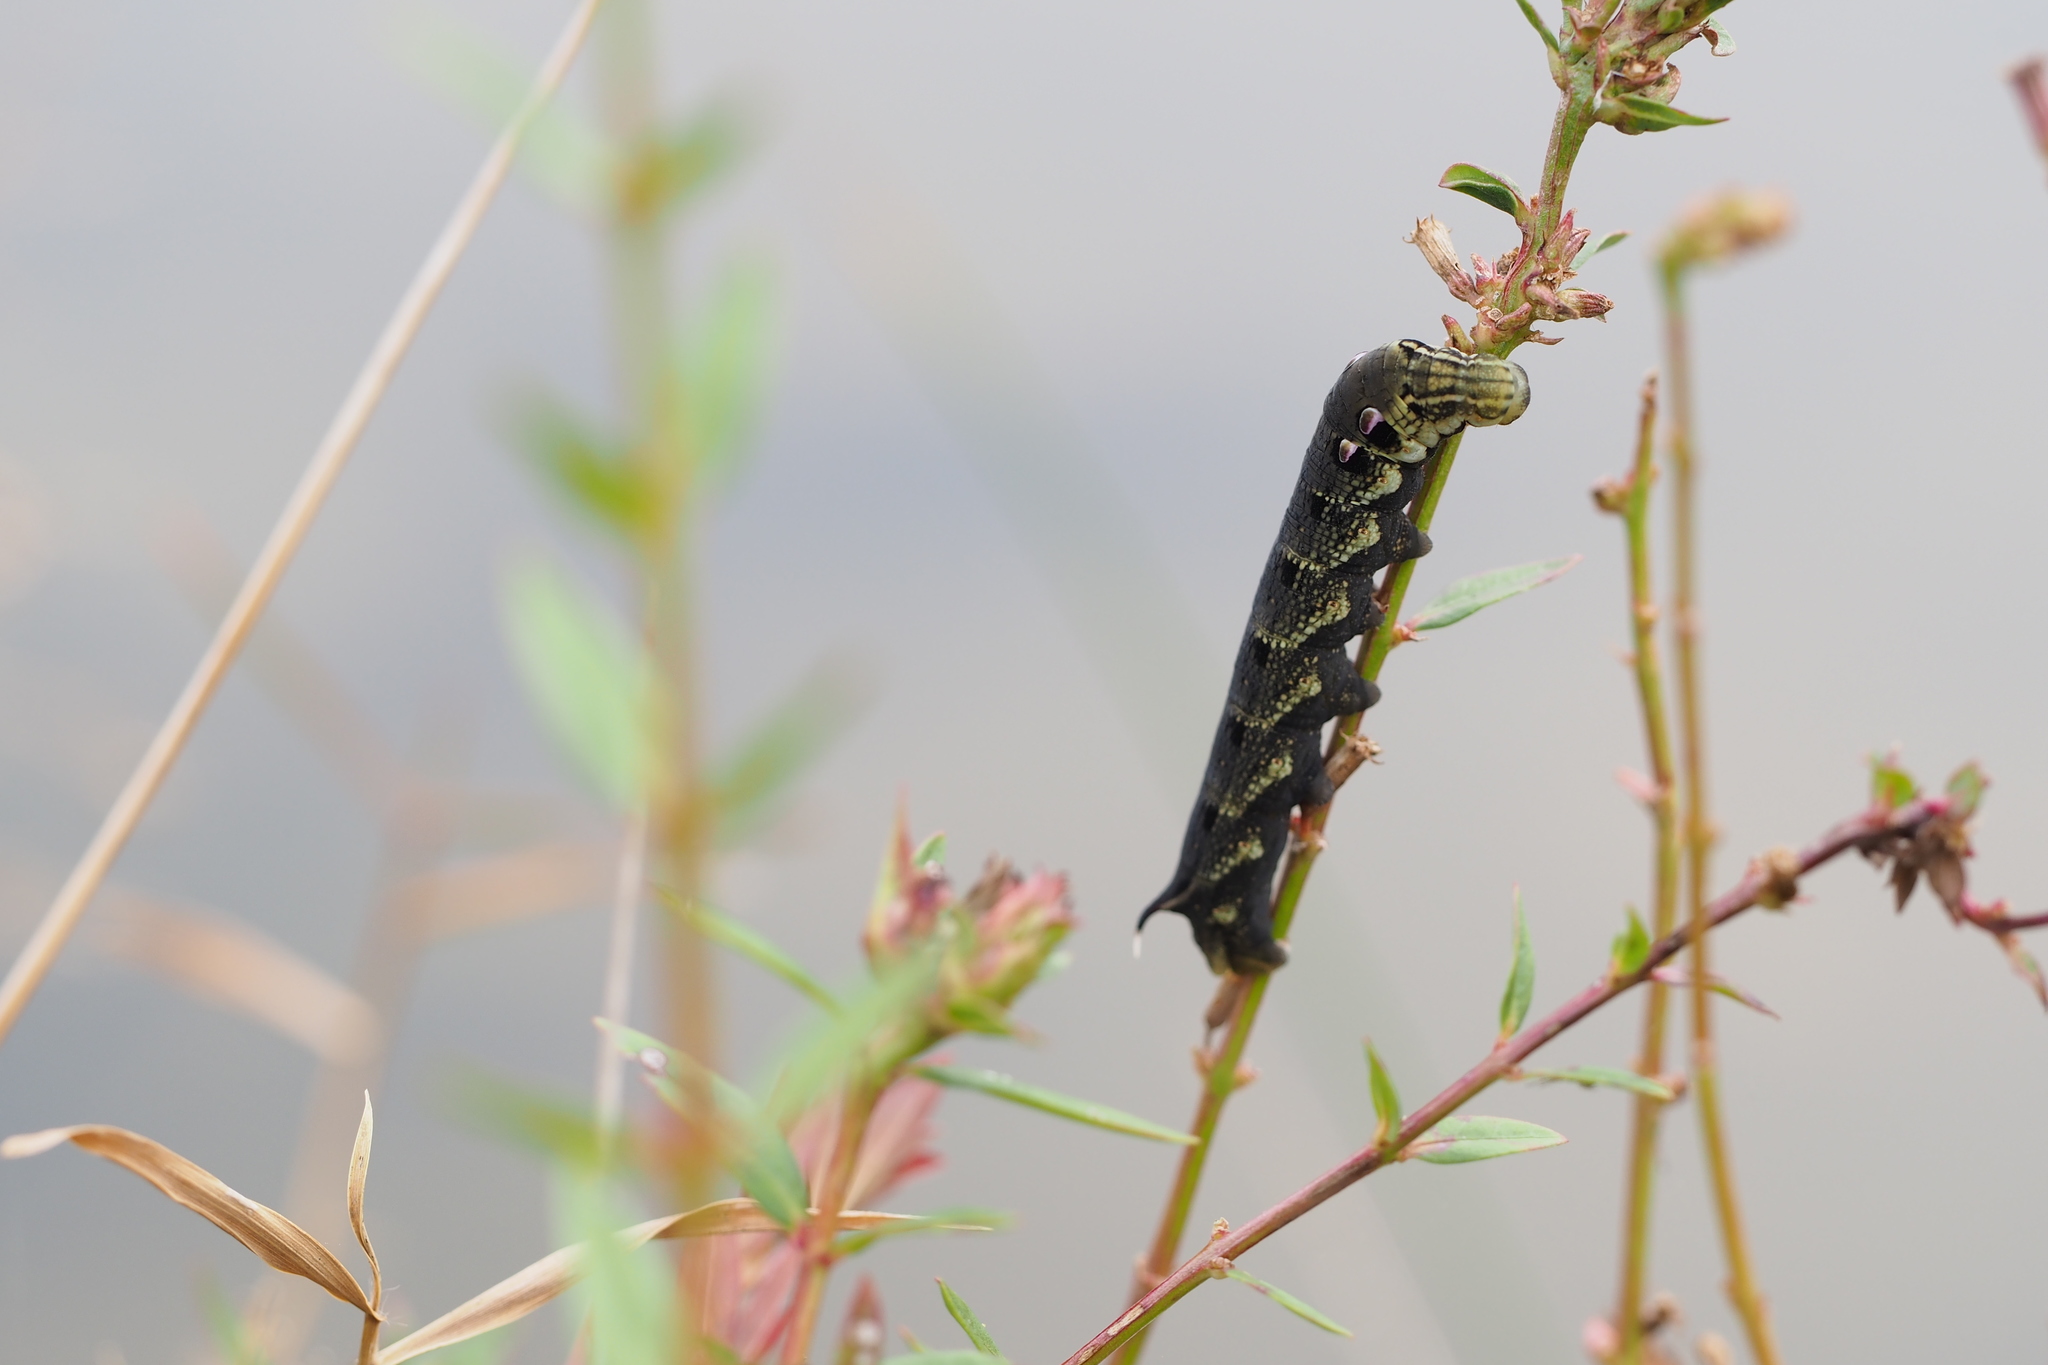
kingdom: Animalia
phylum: Arthropoda
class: Insecta
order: Lepidoptera
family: Sphingidae
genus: Deilephila
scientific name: Deilephila elpenor
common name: Elephant hawk-moth
